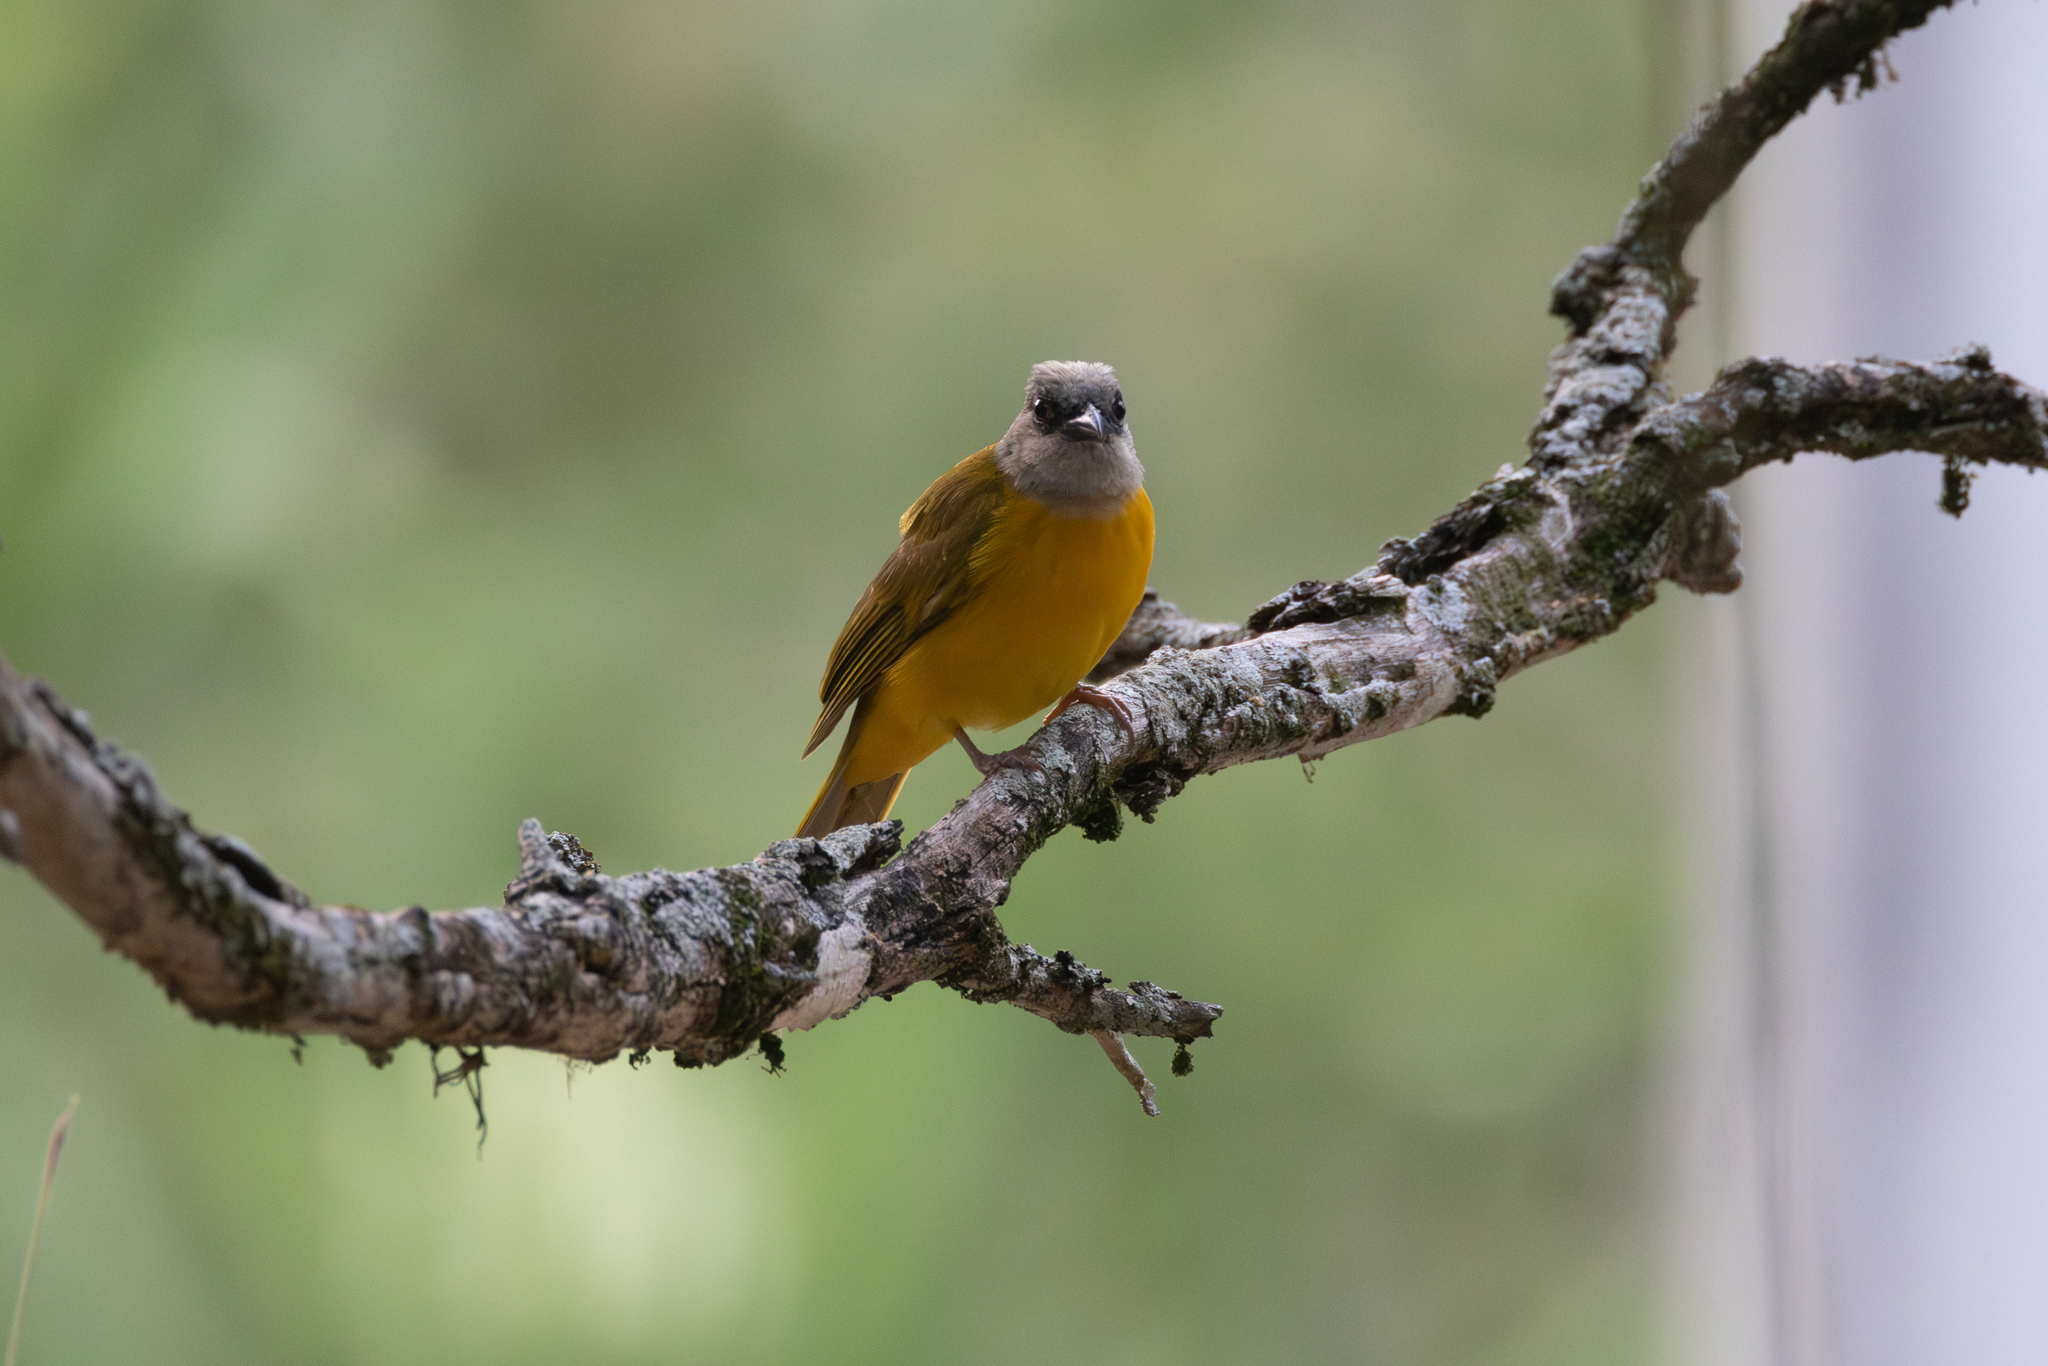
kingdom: Animalia
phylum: Chordata
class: Aves
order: Passeriformes
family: Thraupidae
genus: Eucometis
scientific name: Eucometis penicillata
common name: Grey-headed tanager
